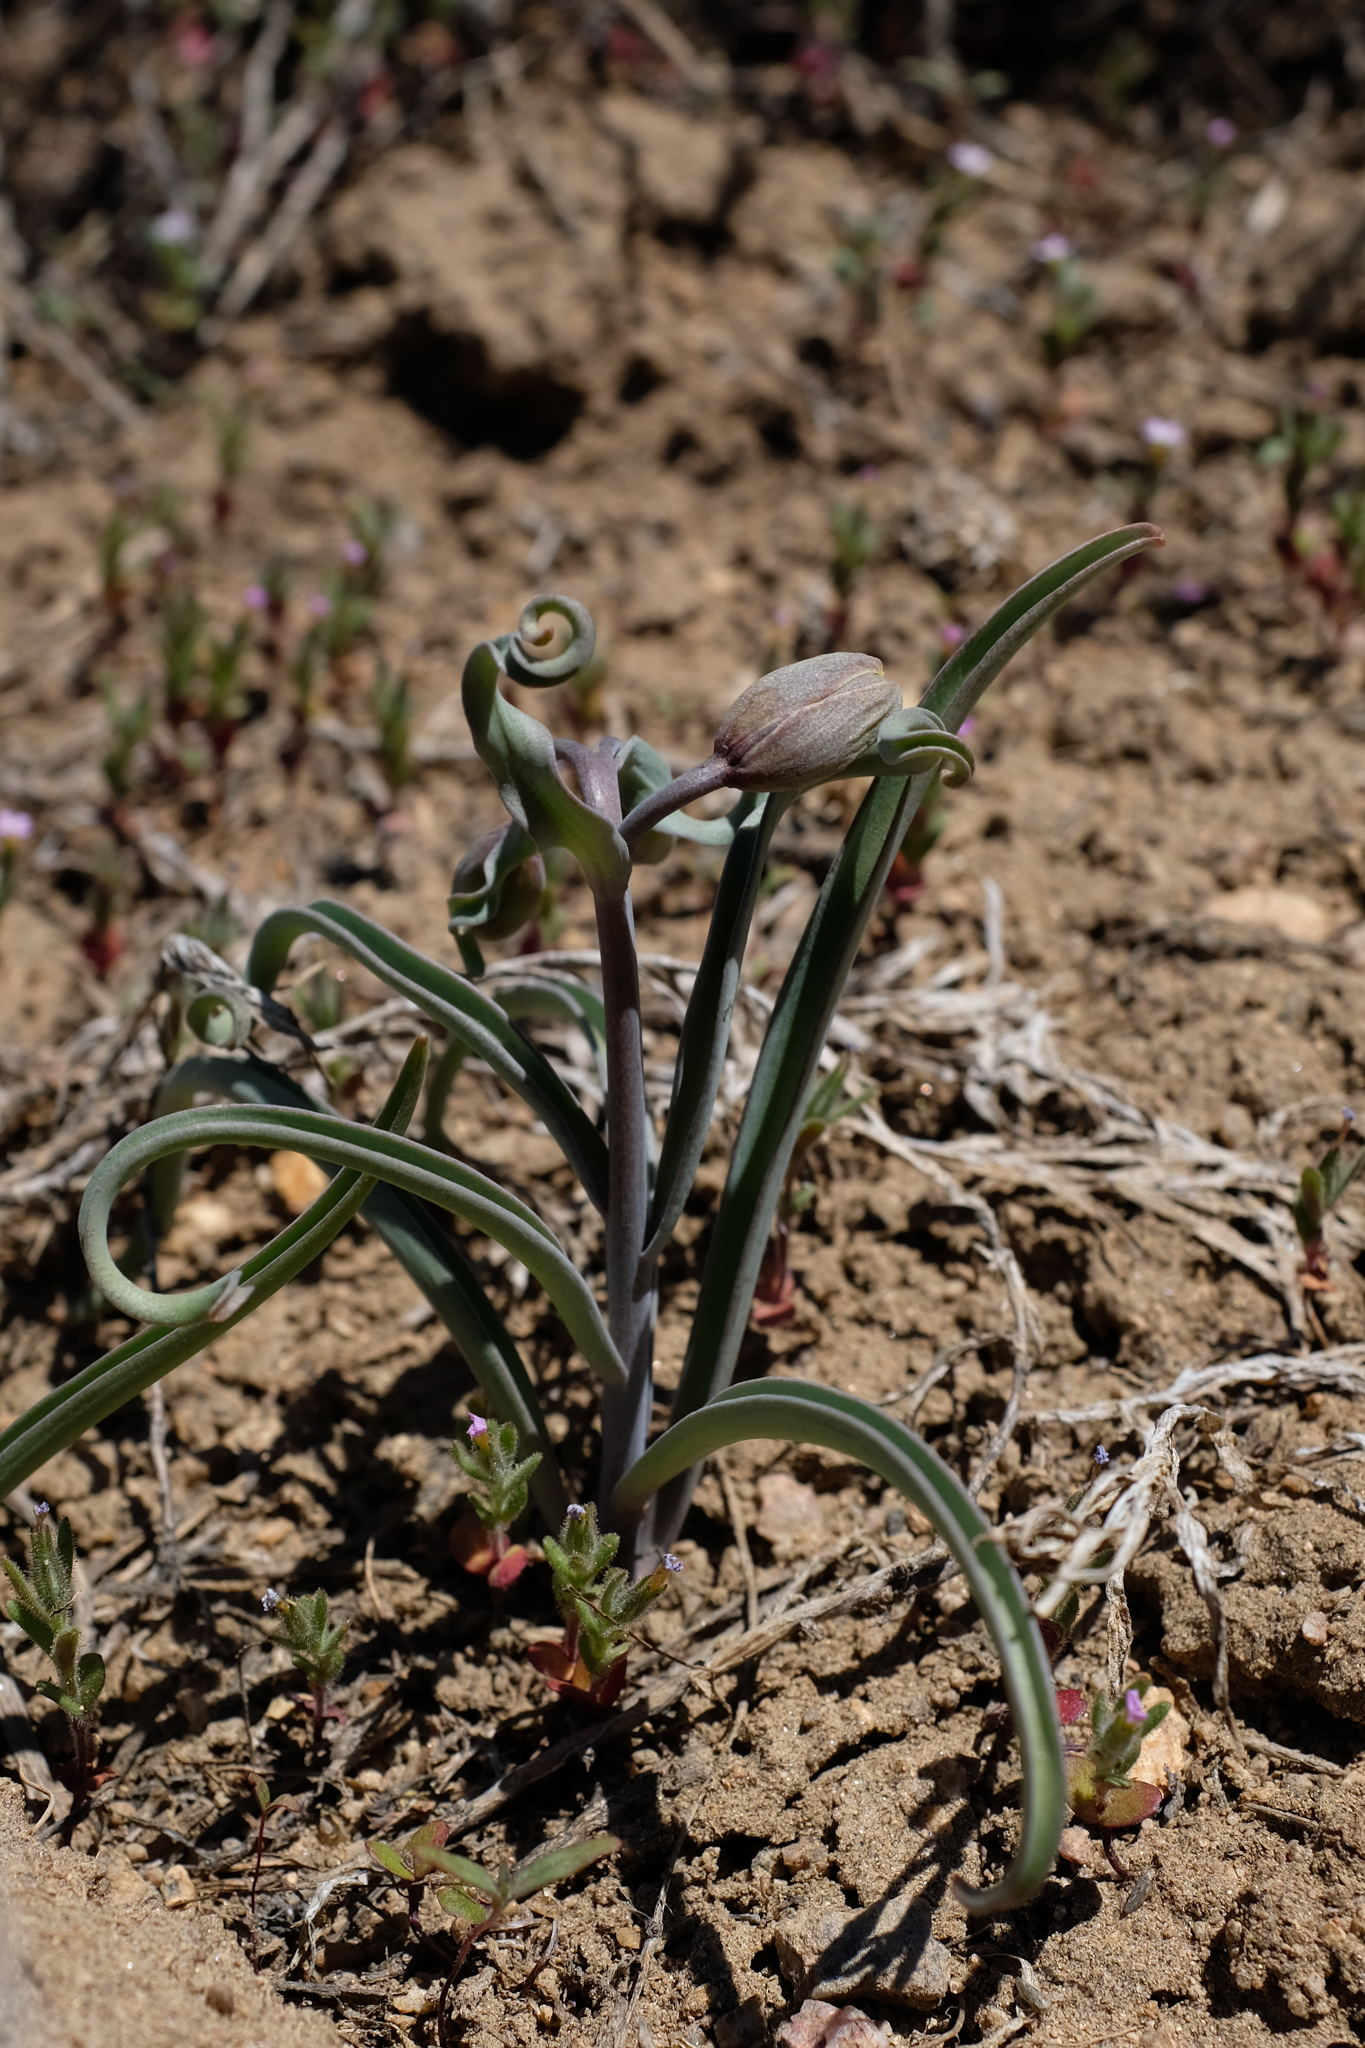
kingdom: Plantae
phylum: Tracheophyta
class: Liliopsida
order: Liliales
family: Liliaceae
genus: Fritillaria
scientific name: Fritillaria pinetorum
